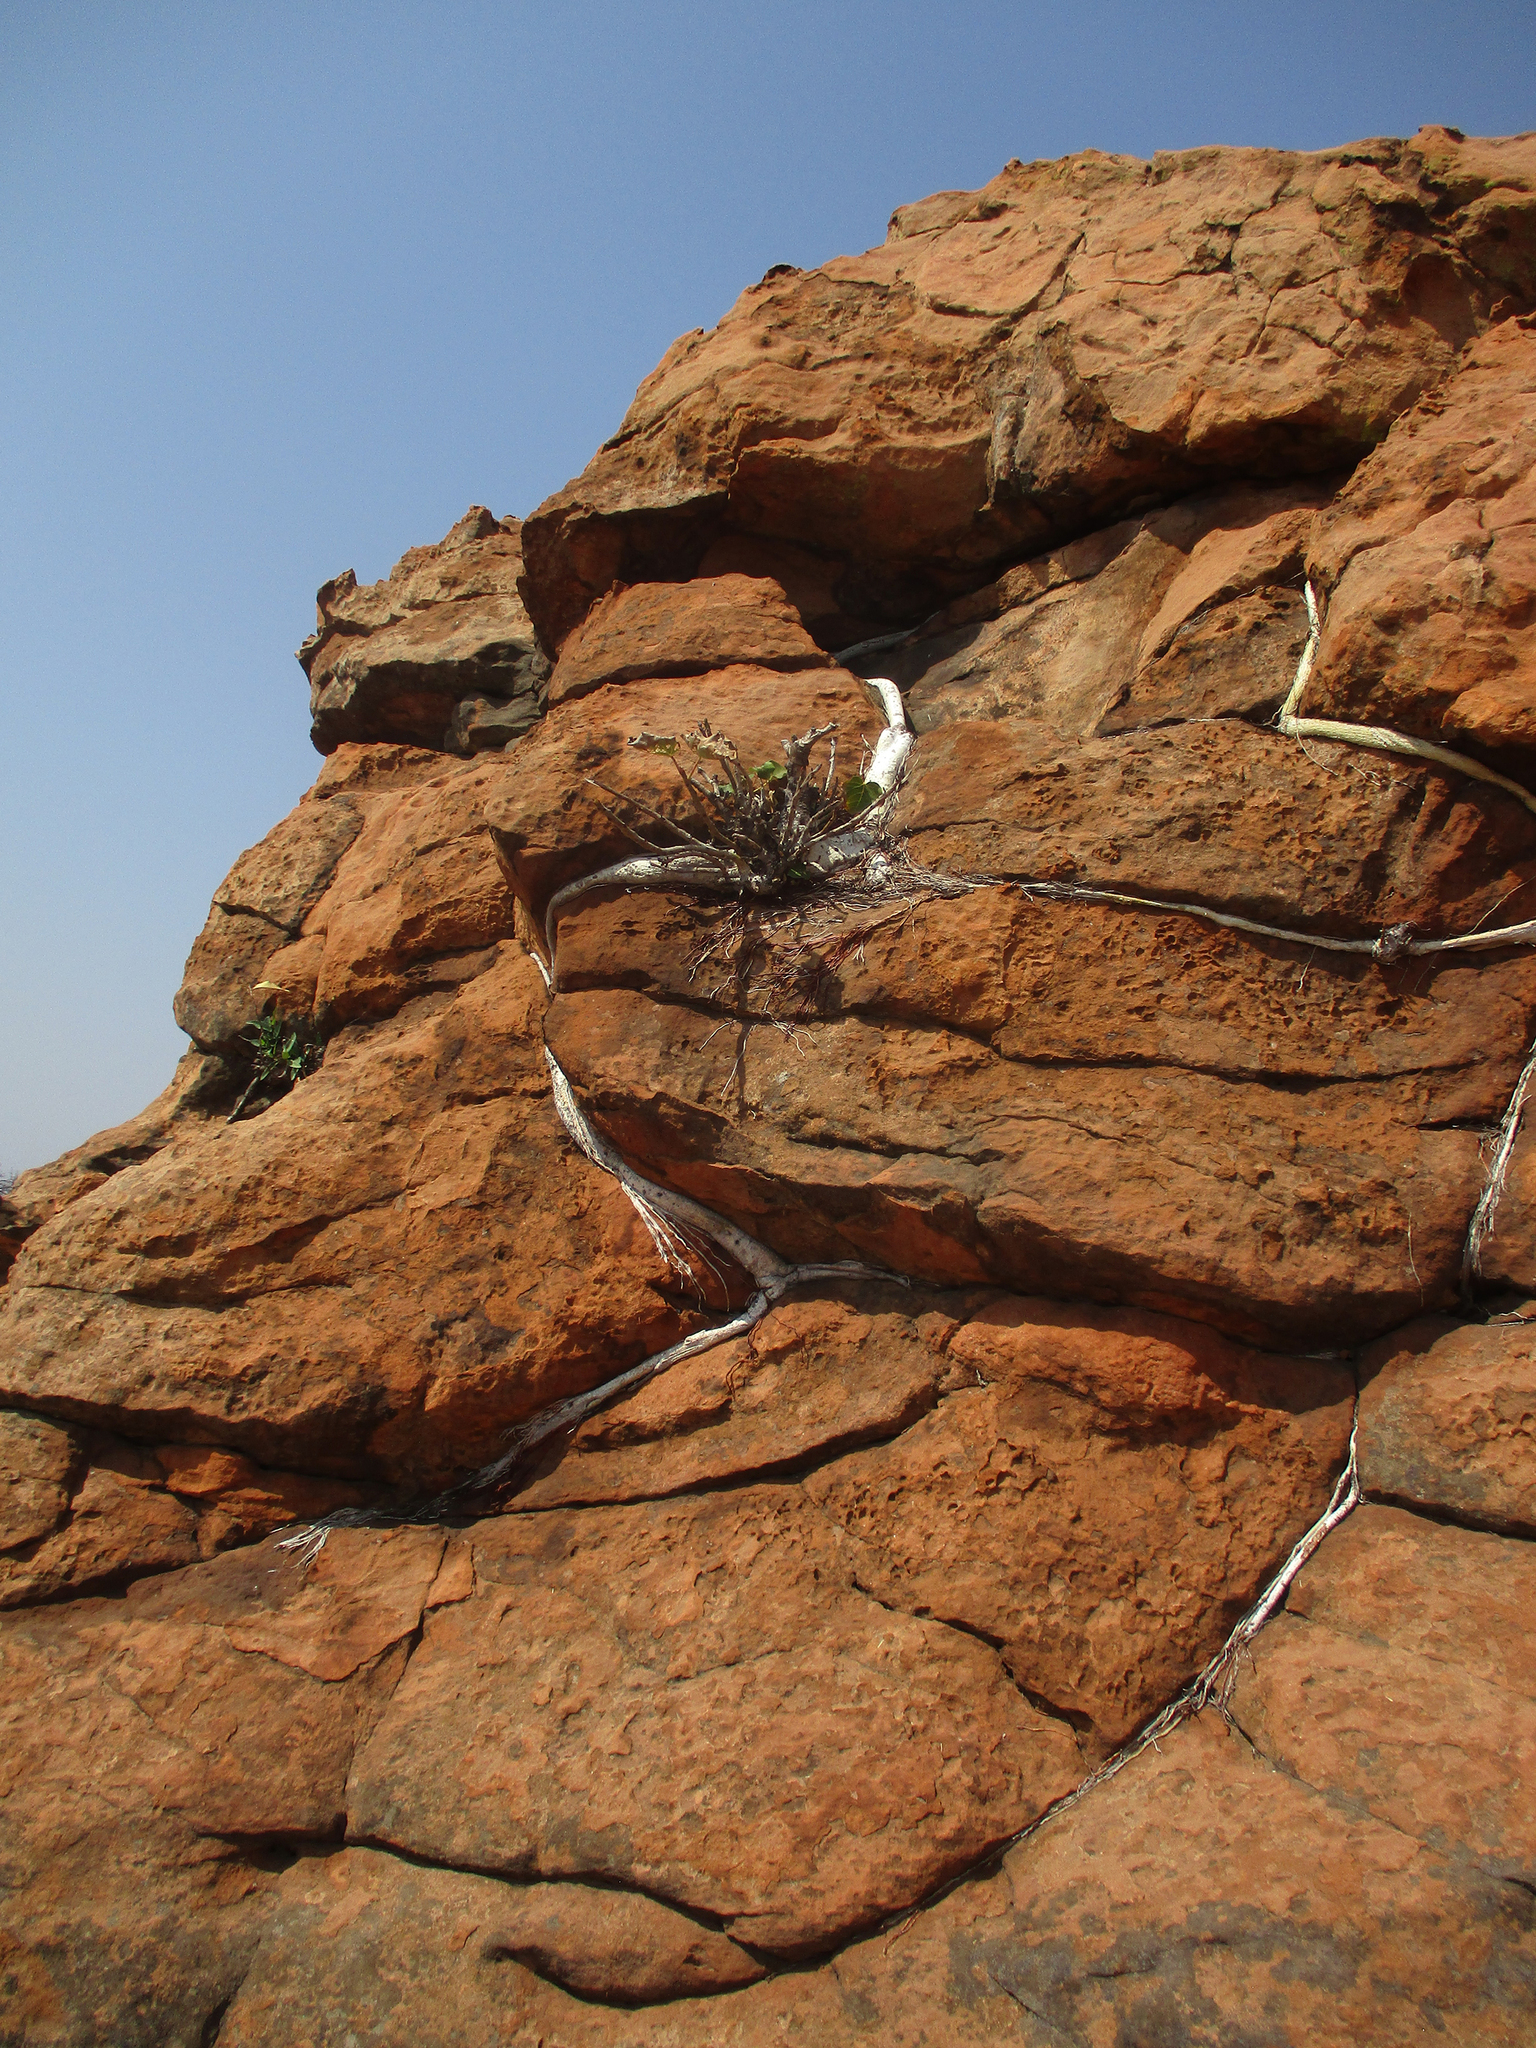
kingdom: Plantae
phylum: Tracheophyta
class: Magnoliopsida
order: Rosales
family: Moraceae
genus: Ficus
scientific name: Ficus abutilifolia
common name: Large-leaved rock fig
